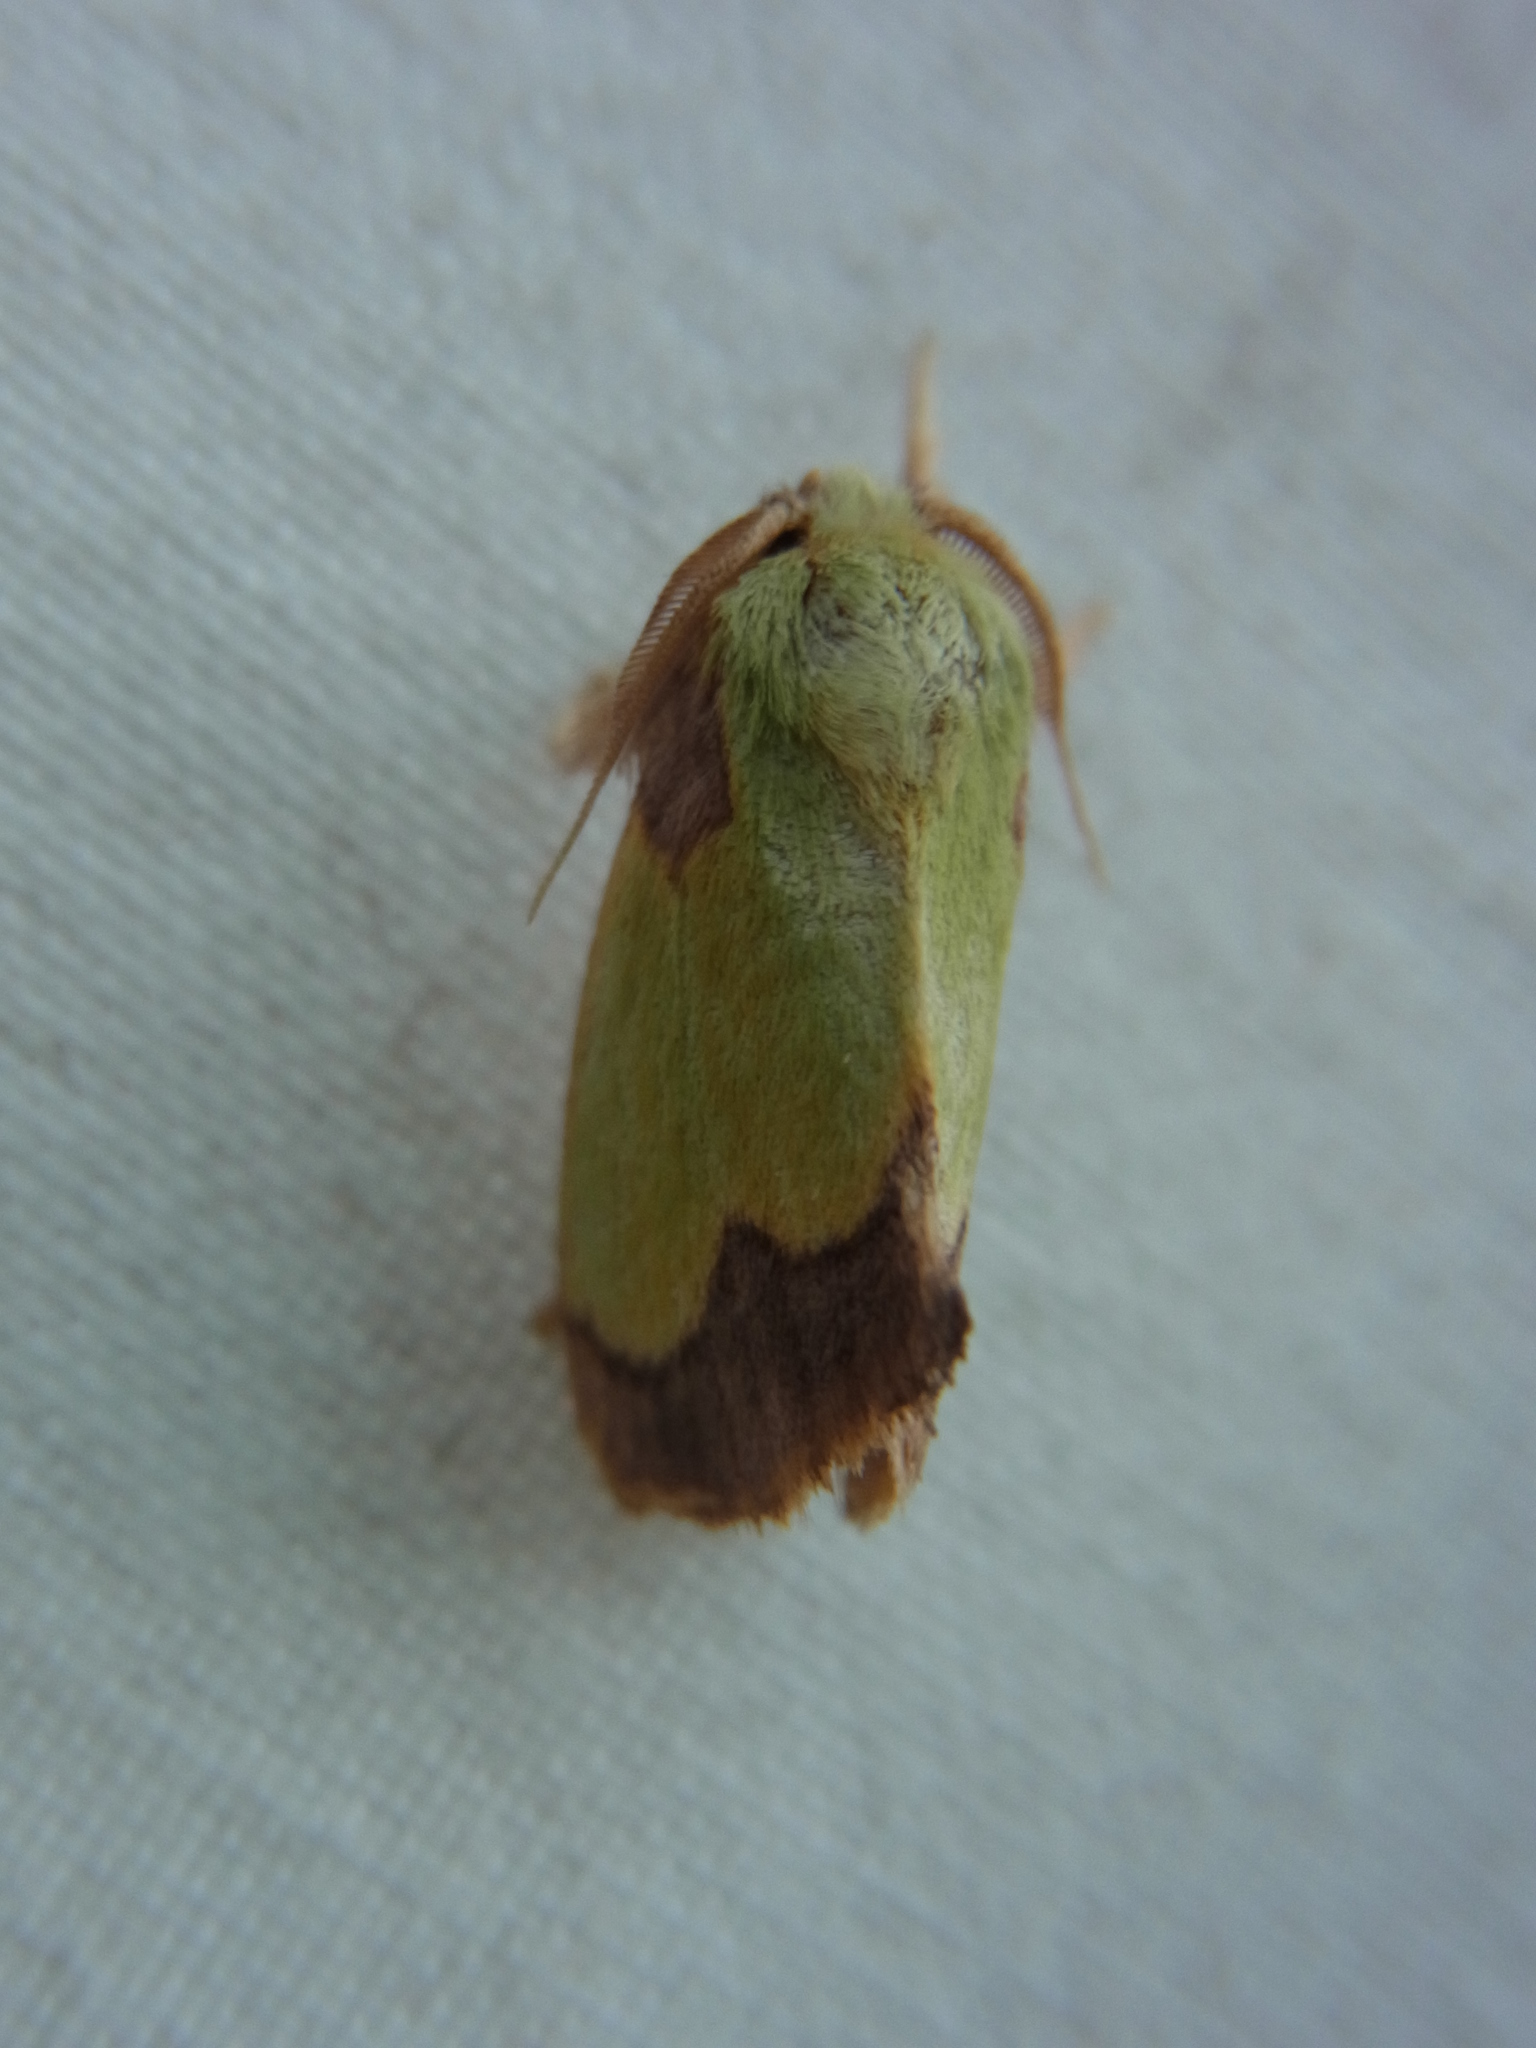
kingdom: Animalia
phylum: Arthropoda
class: Insecta
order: Lepidoptera
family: Limacodidae
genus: Parasa
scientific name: Parasa hilarula
